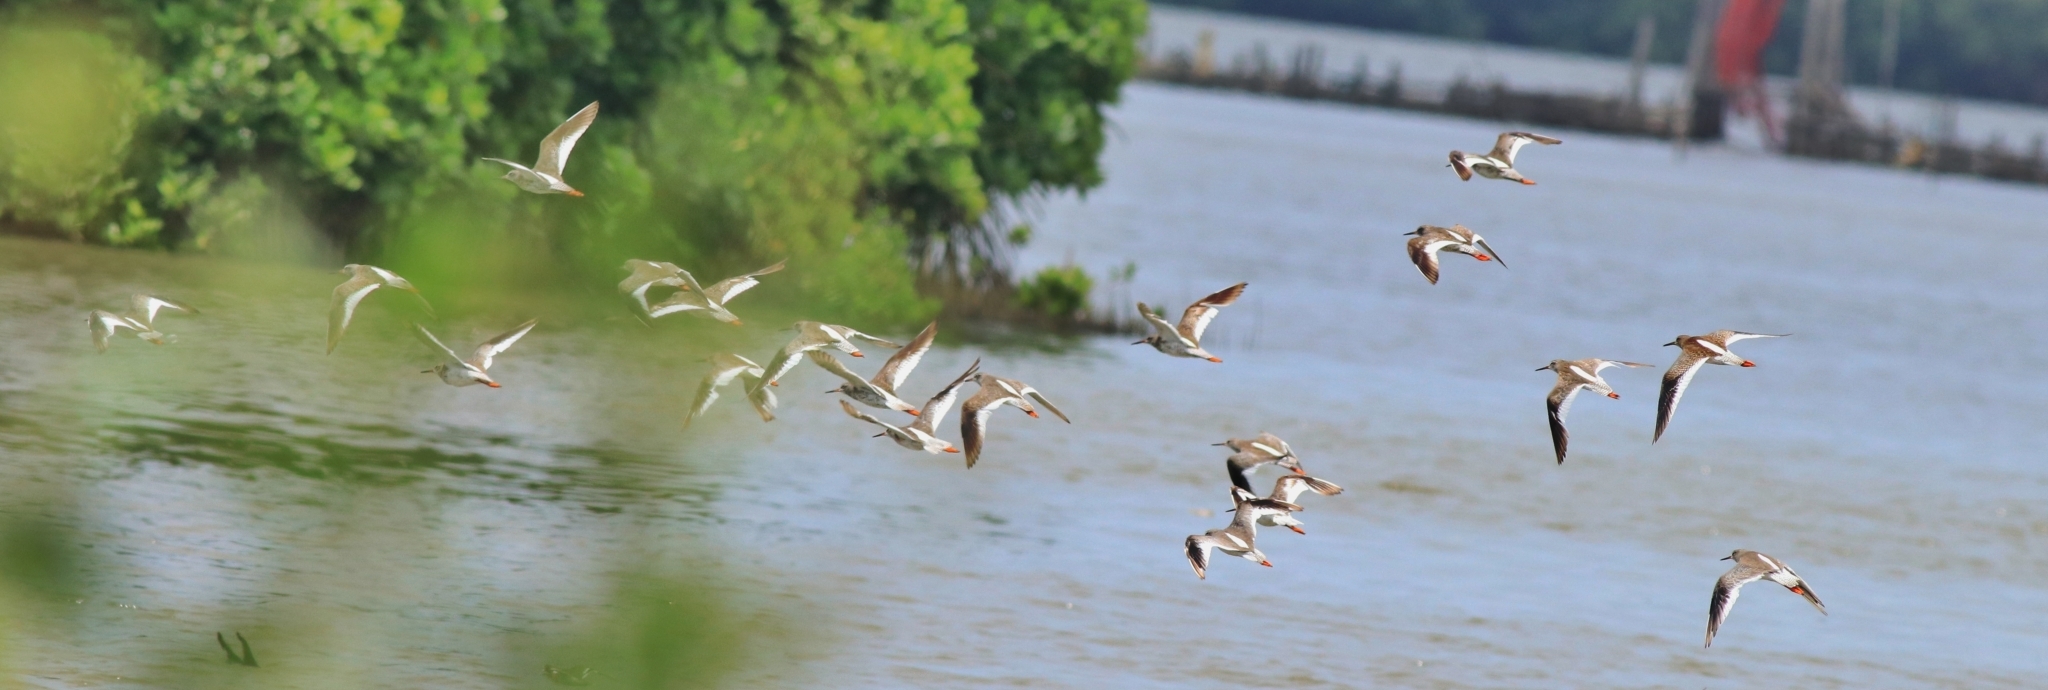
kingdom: Animalia
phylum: Chordata
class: Aves
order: Charadriiformes
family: Scolopacidae
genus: Tringa
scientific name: Tringa totanus
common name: Common redshank
